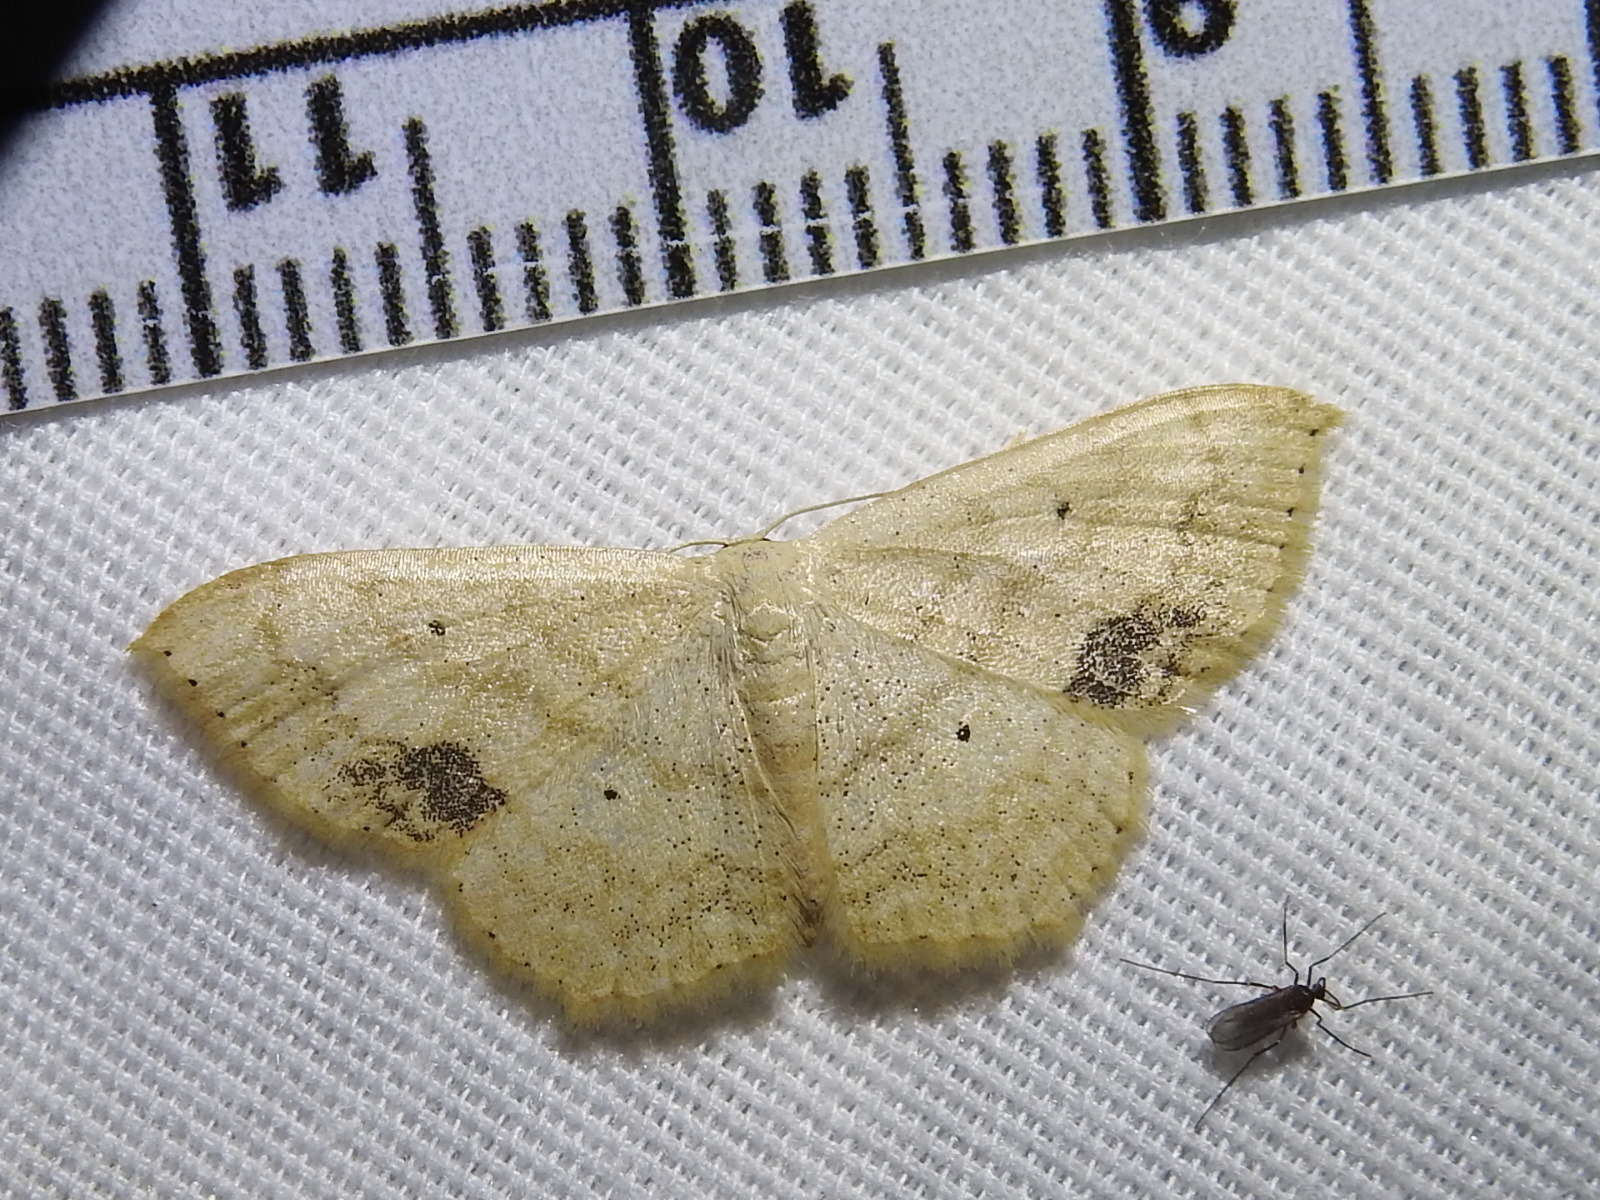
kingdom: Animalia
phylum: Arthropoda
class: Insecta
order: Lepidoptera
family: Geometridae
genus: Scopula
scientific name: Scopula limboundata
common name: Large lace border
